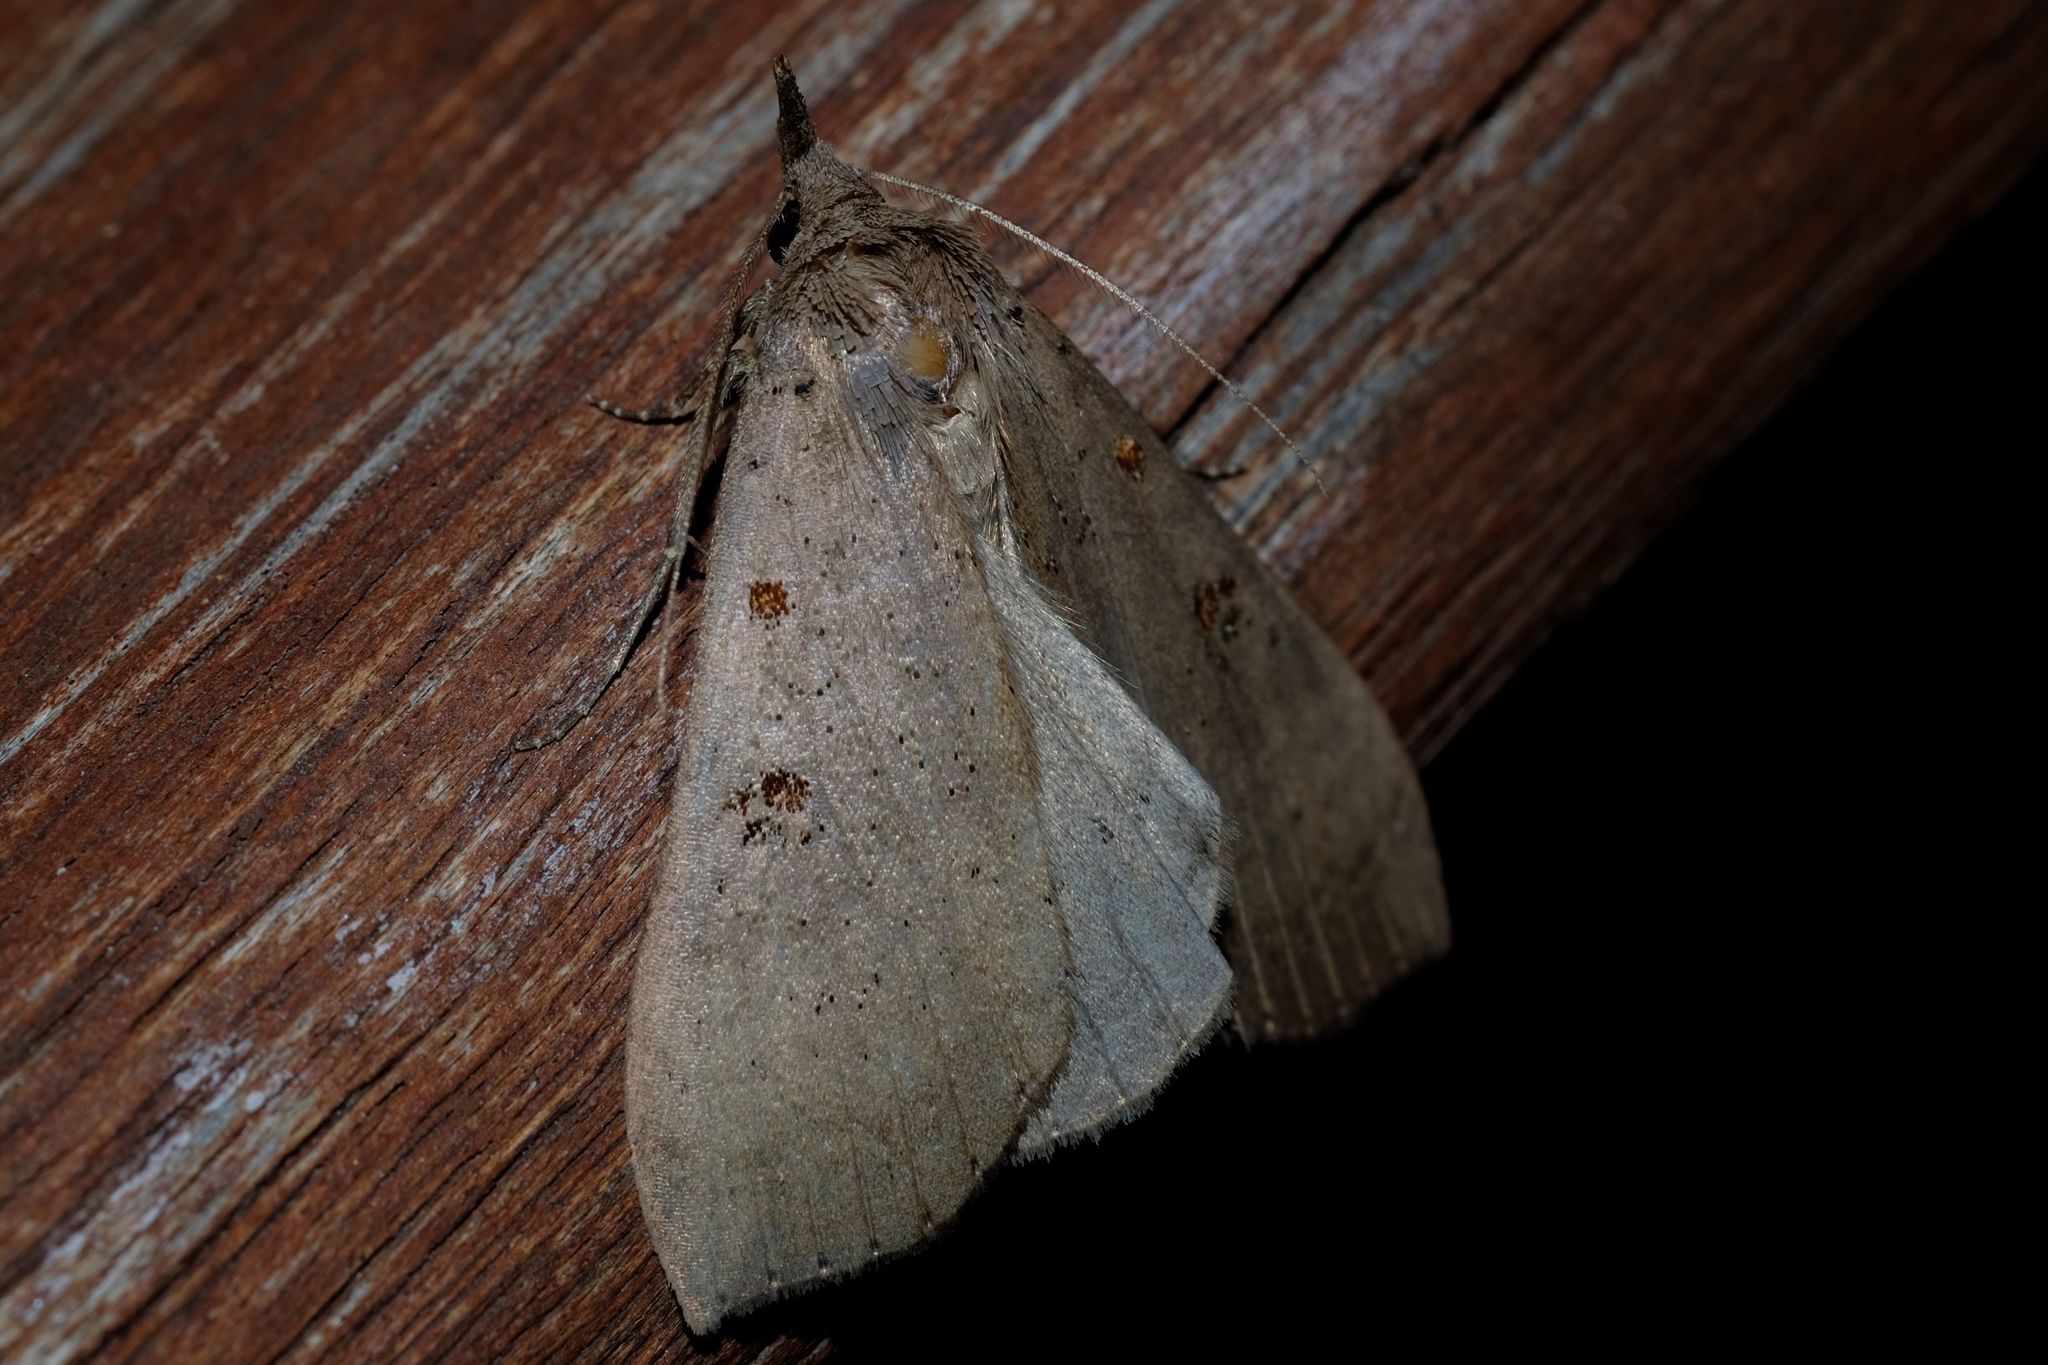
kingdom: Animalia
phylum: Arthropoda
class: Insecta
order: Lepidoptera
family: Erebidae
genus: Rhapsa
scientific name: Rhapsa suscitatalis
